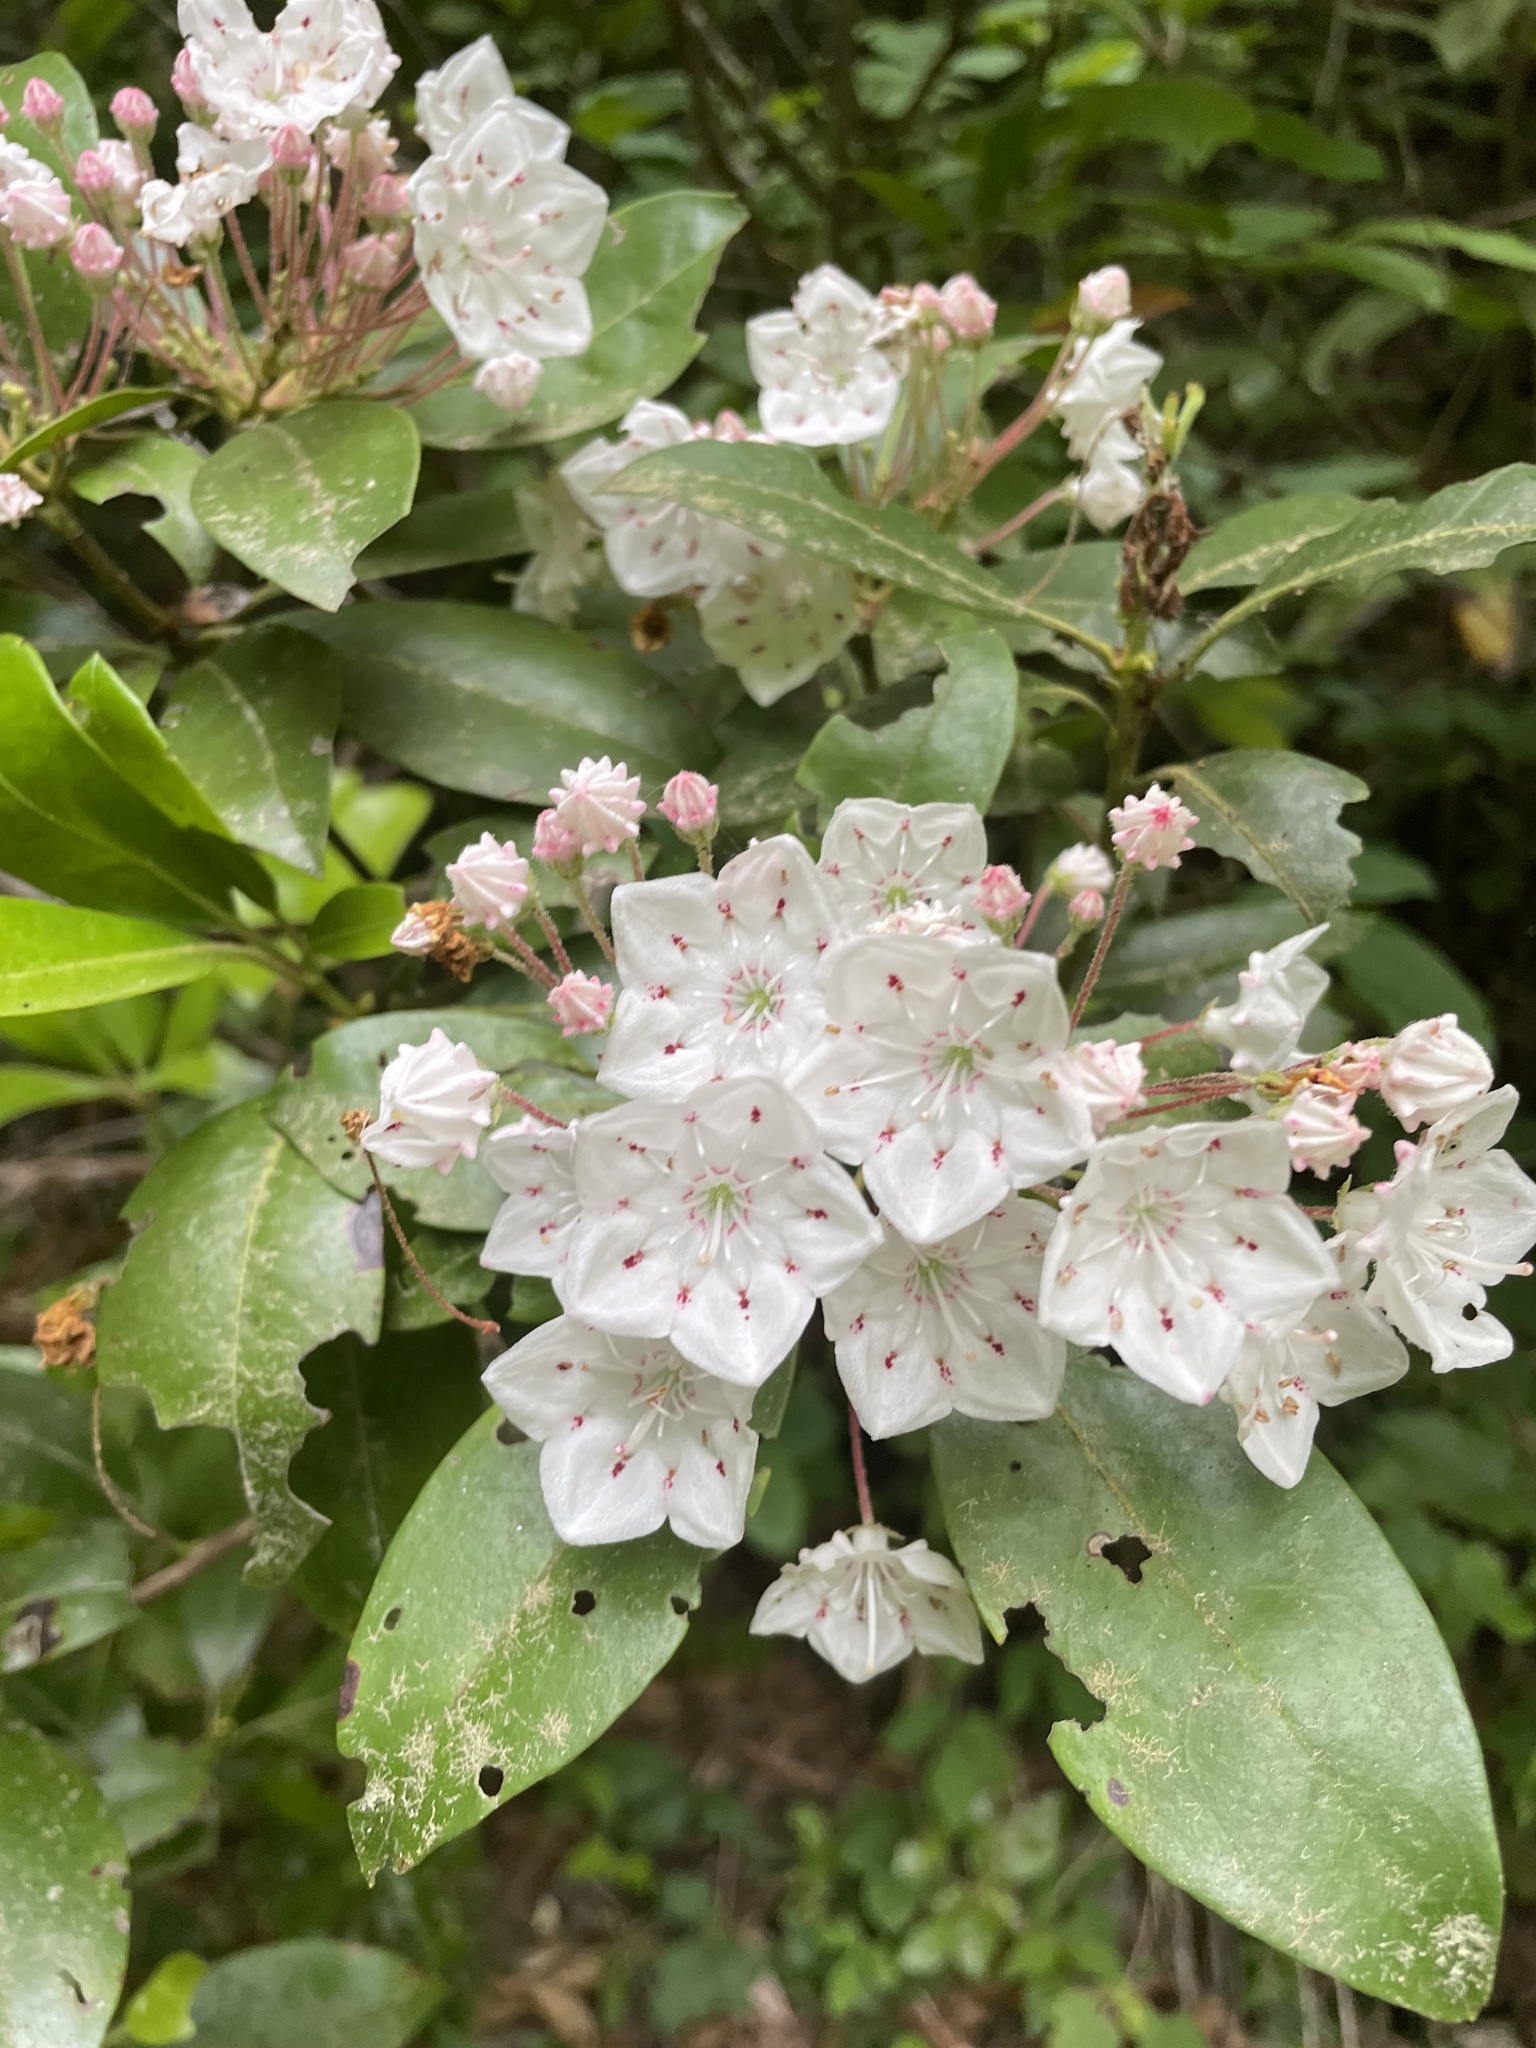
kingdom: Plantae
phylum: Tracheophyta
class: Magnoliopsida
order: Ericales
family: Ericaceae
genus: Kalmia
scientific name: Kalmia latifolia
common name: Mountain-laurel
